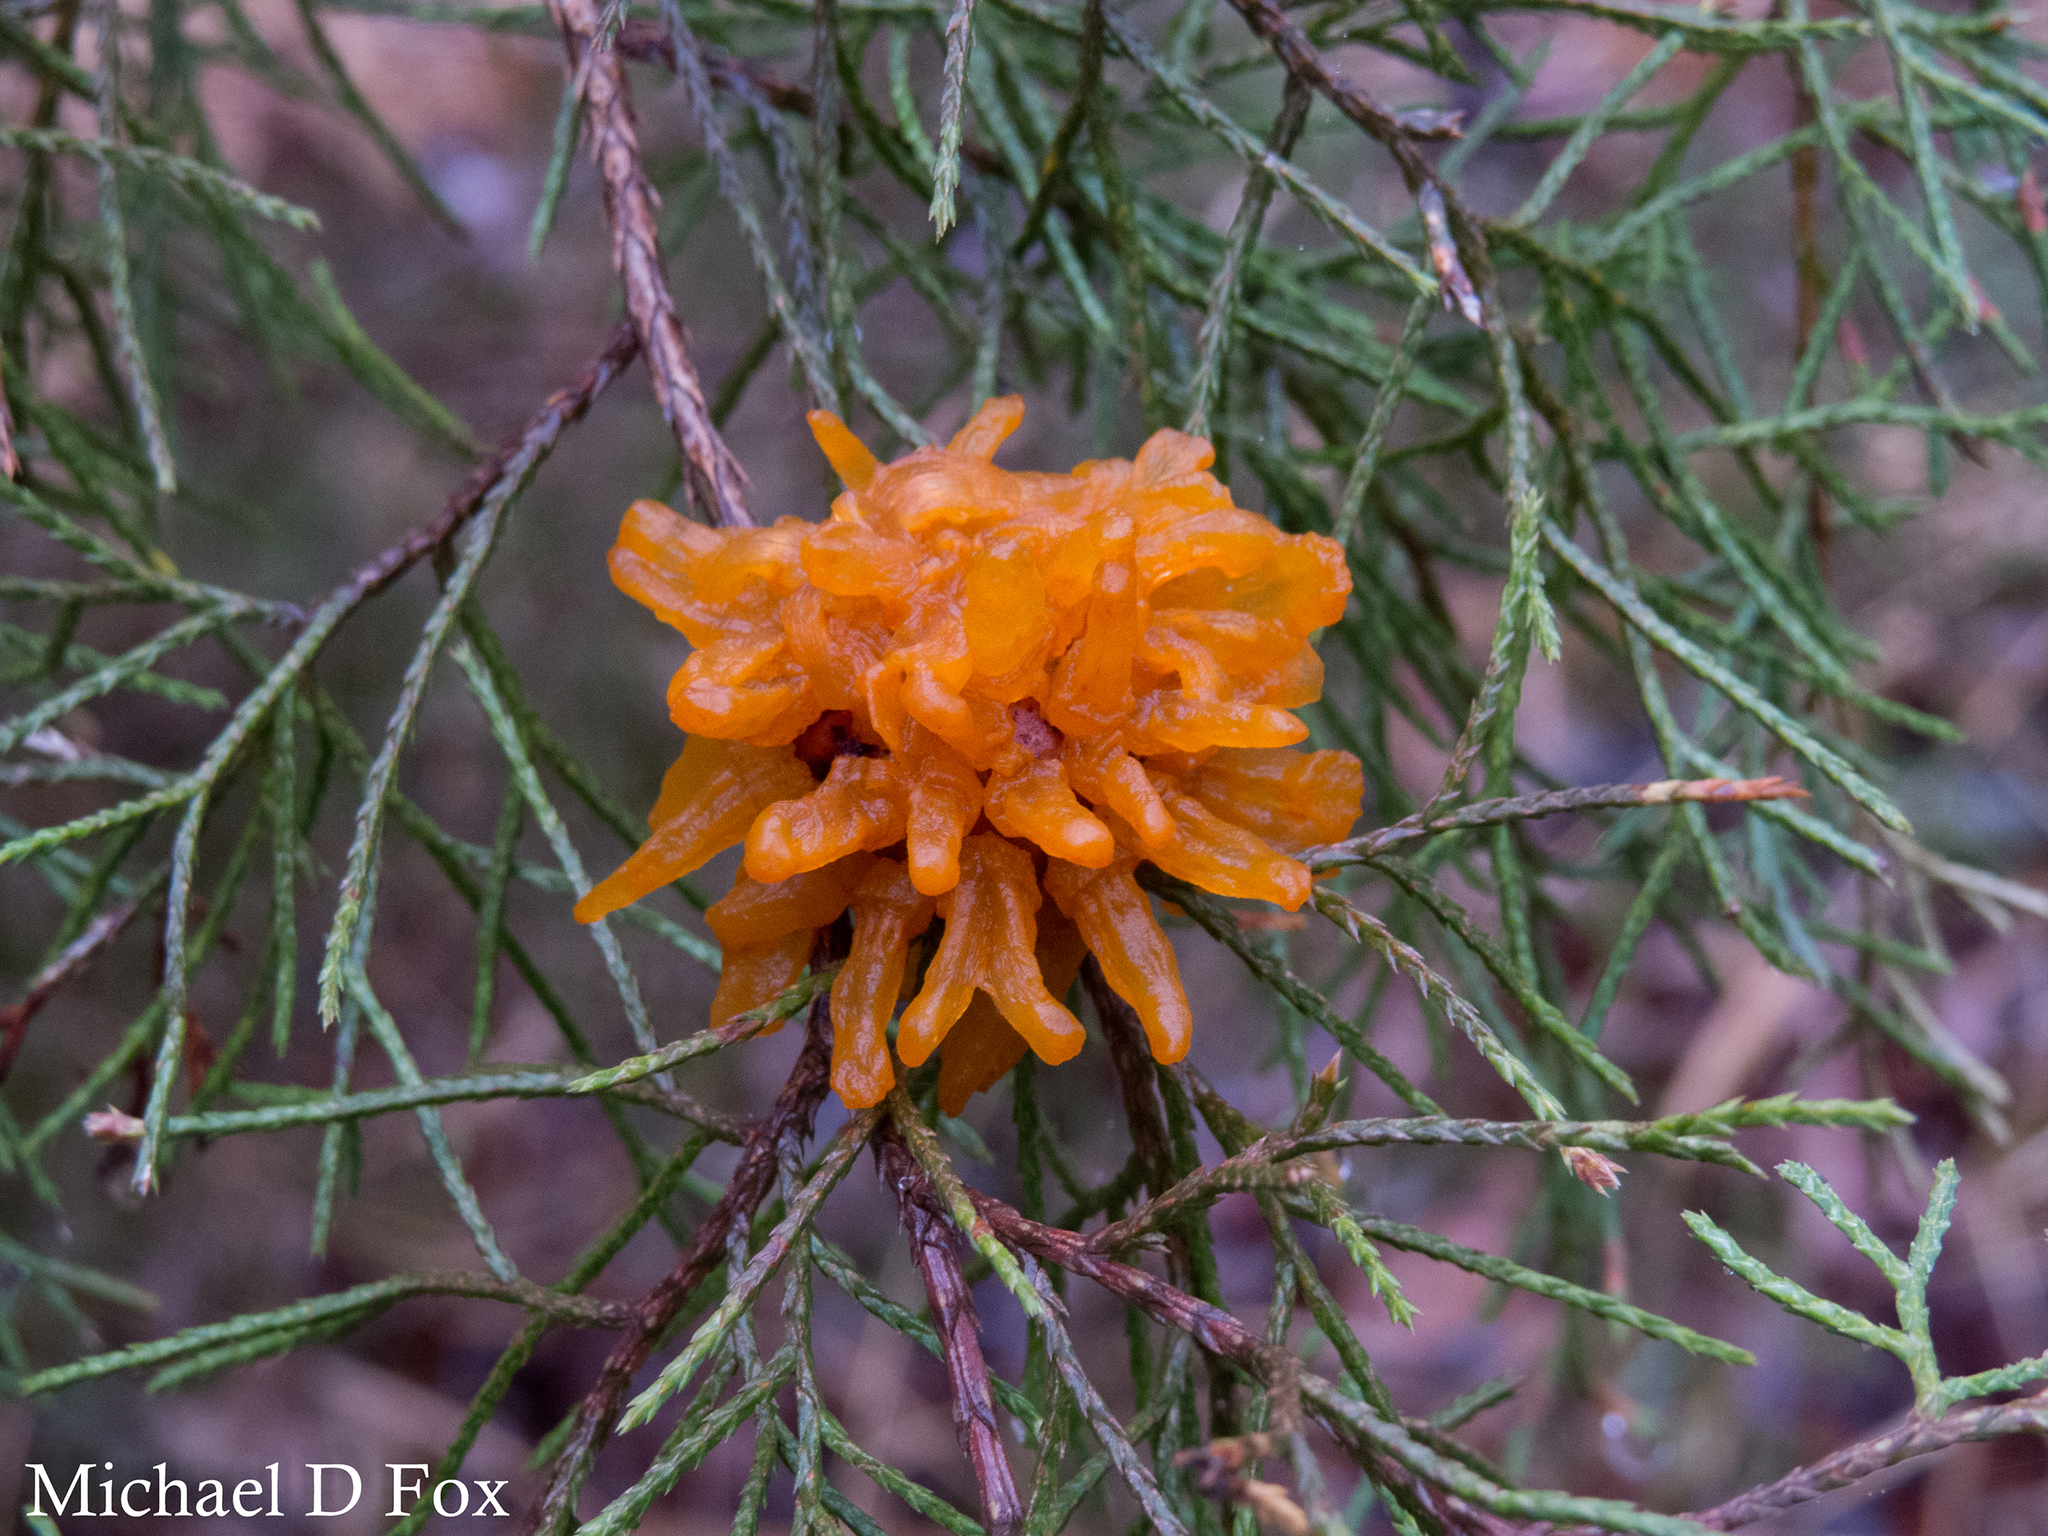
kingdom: Fungi
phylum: Basidiomycota
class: Pucciniomycetes
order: Pucciniales
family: Gymnosporangiaceae
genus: Gymnosporangium
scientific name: Gymnosporangium juniperi-virginianae
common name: Juniper-apple rust
